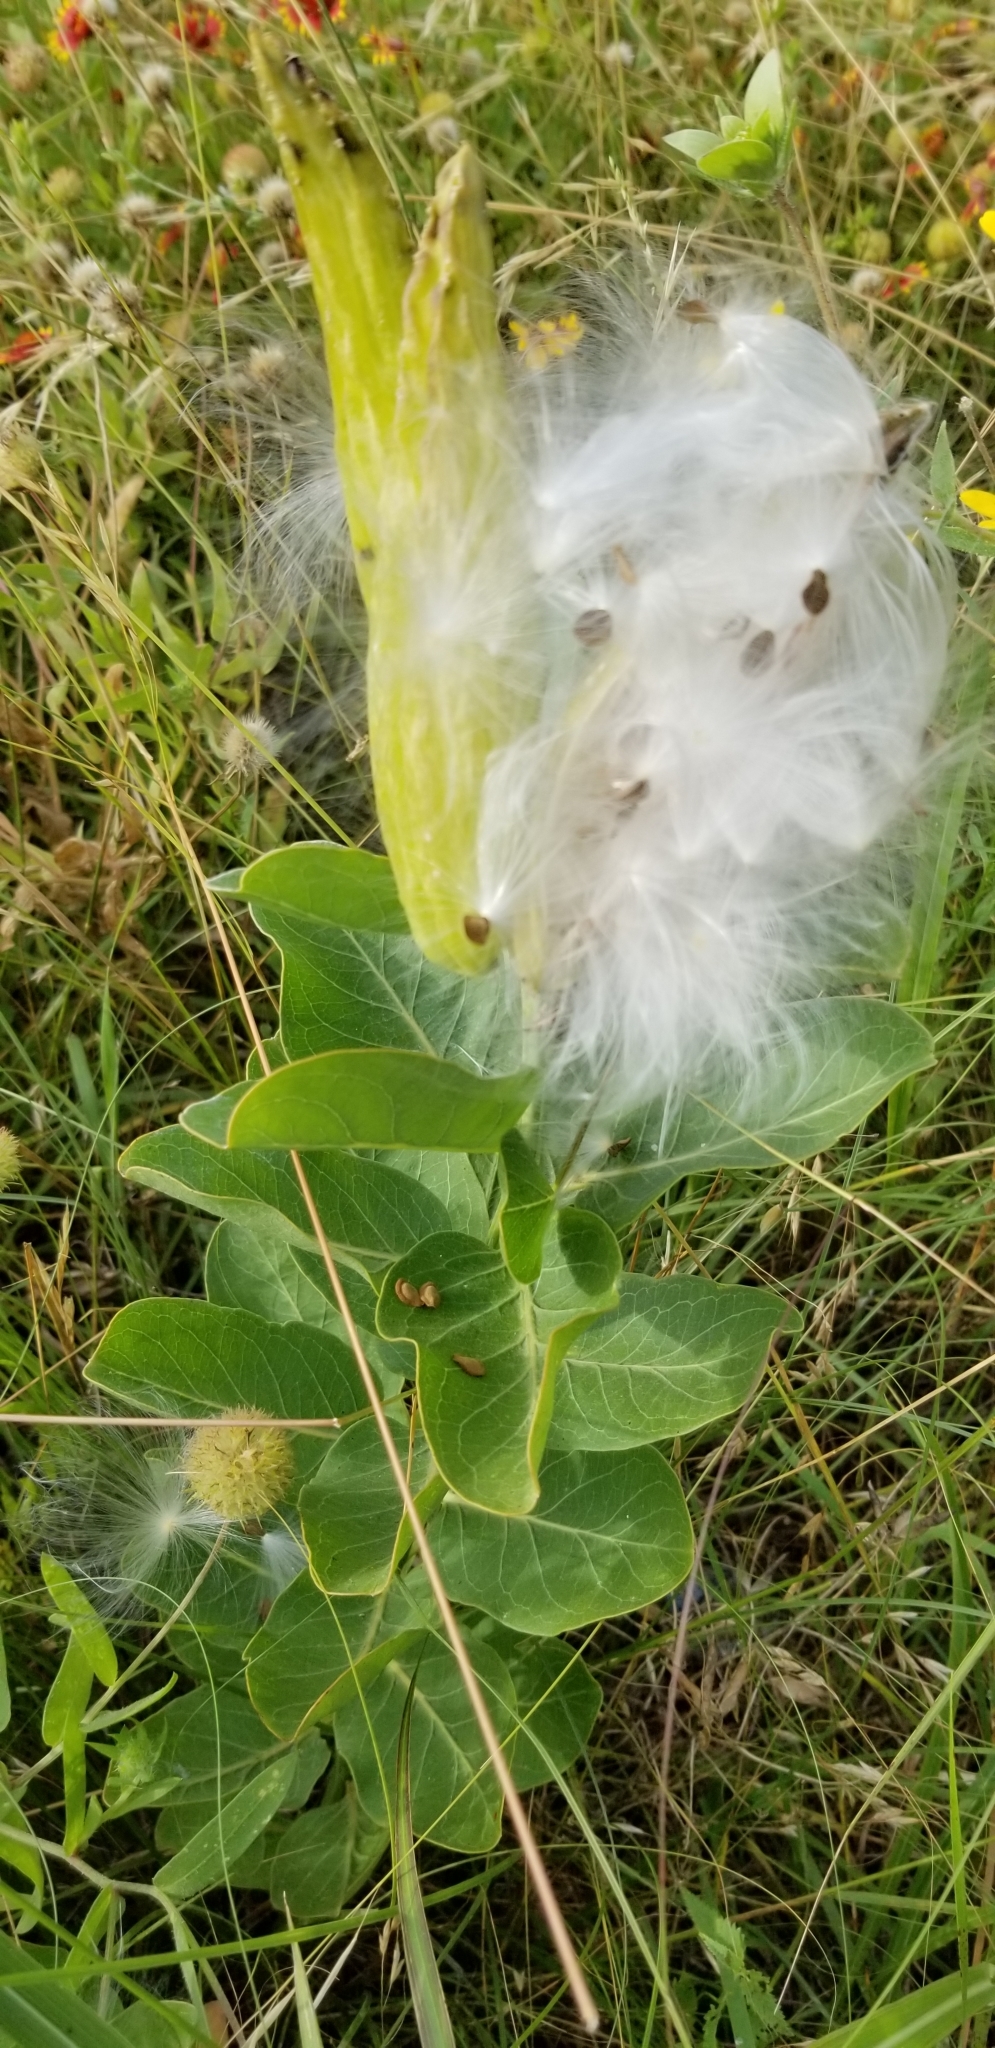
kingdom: Plantae
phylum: Tracheophyta
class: Magnoliopsida
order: Gentianales
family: Apocynaceae
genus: Asclepias
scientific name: Asclepias viridis
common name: Antelope-horns
